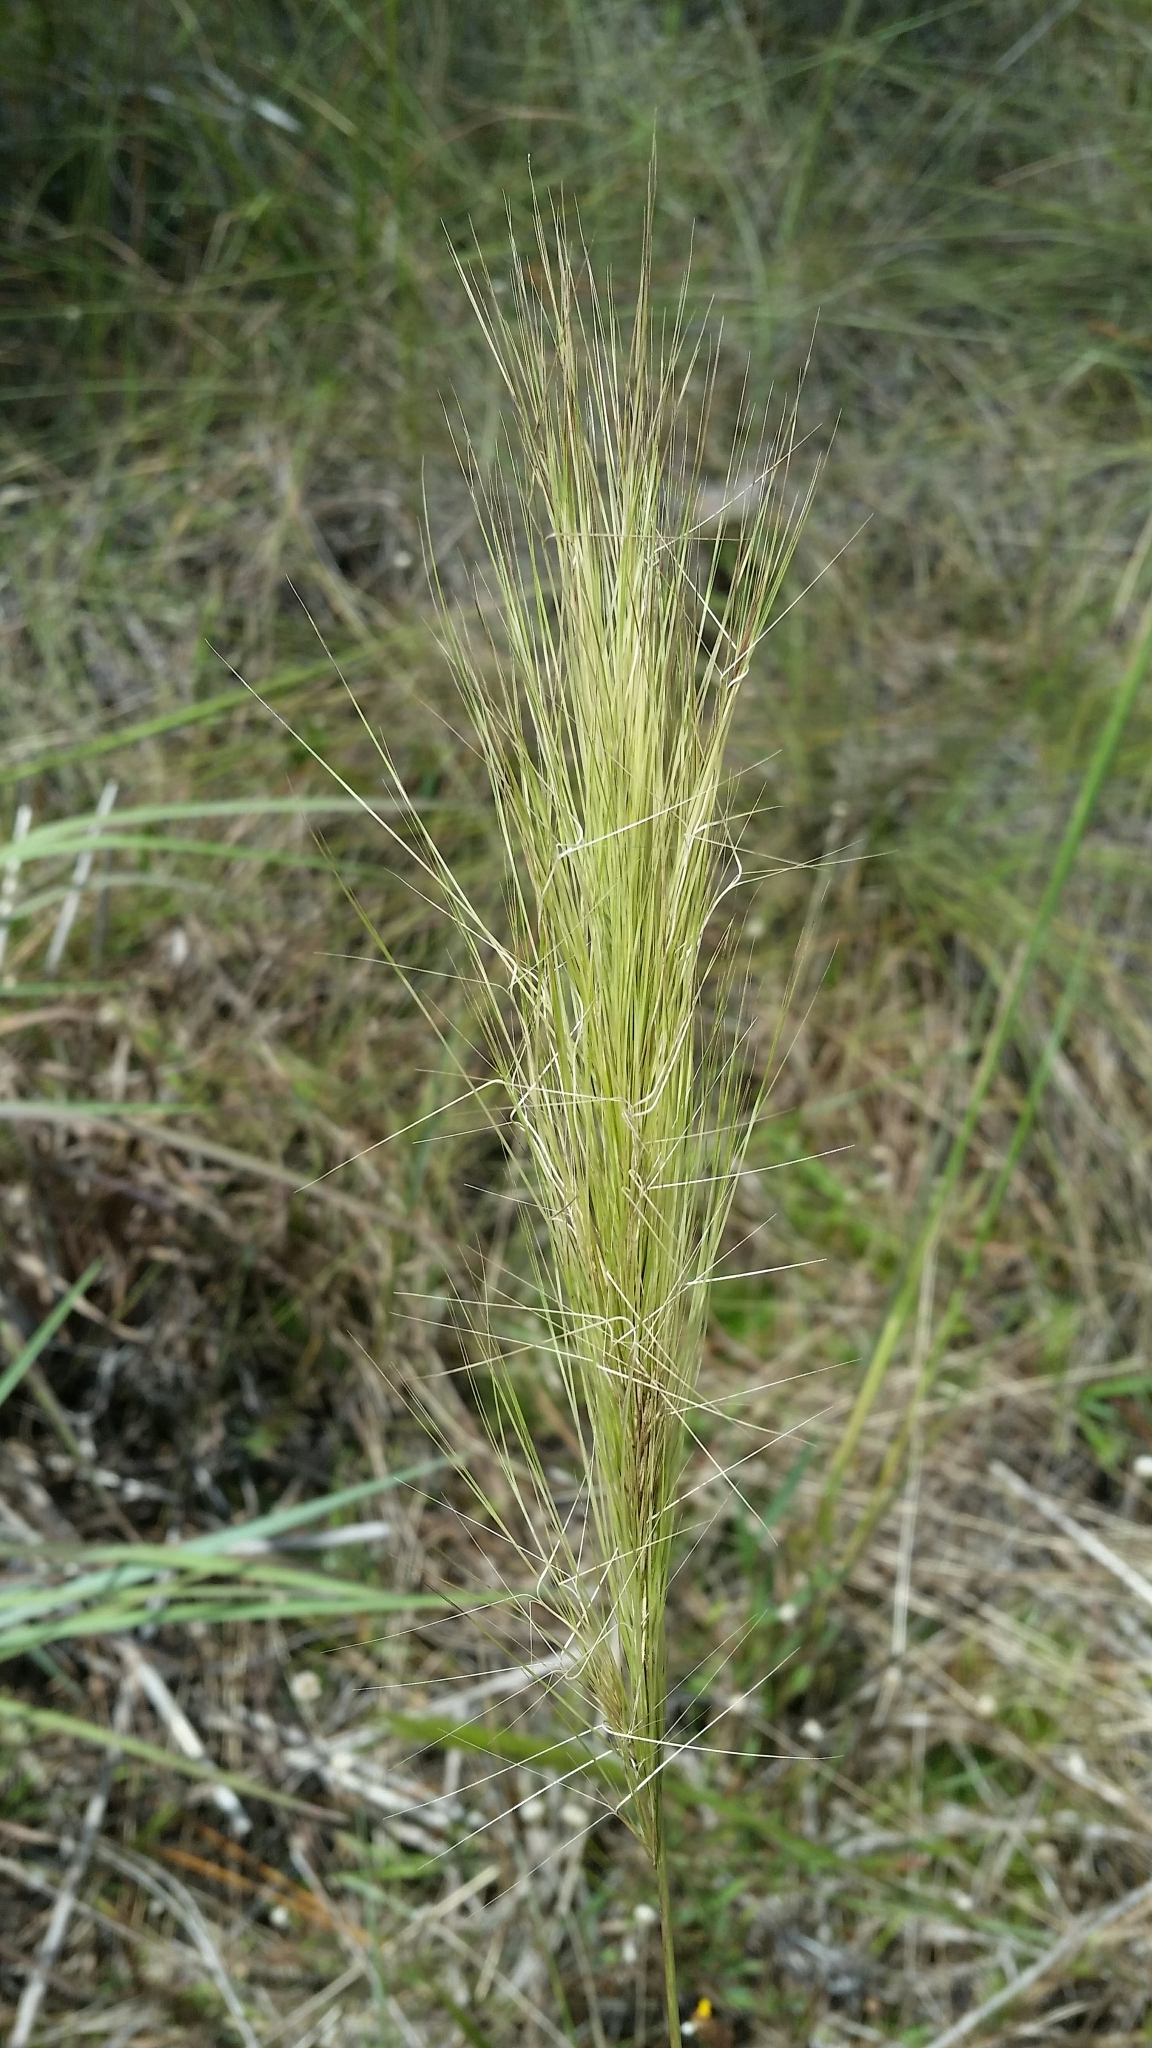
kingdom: Plantae
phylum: Tracheophyta
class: Liliopsida
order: Poales
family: Poaceae
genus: Aristida
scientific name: Aristida spiciformis
